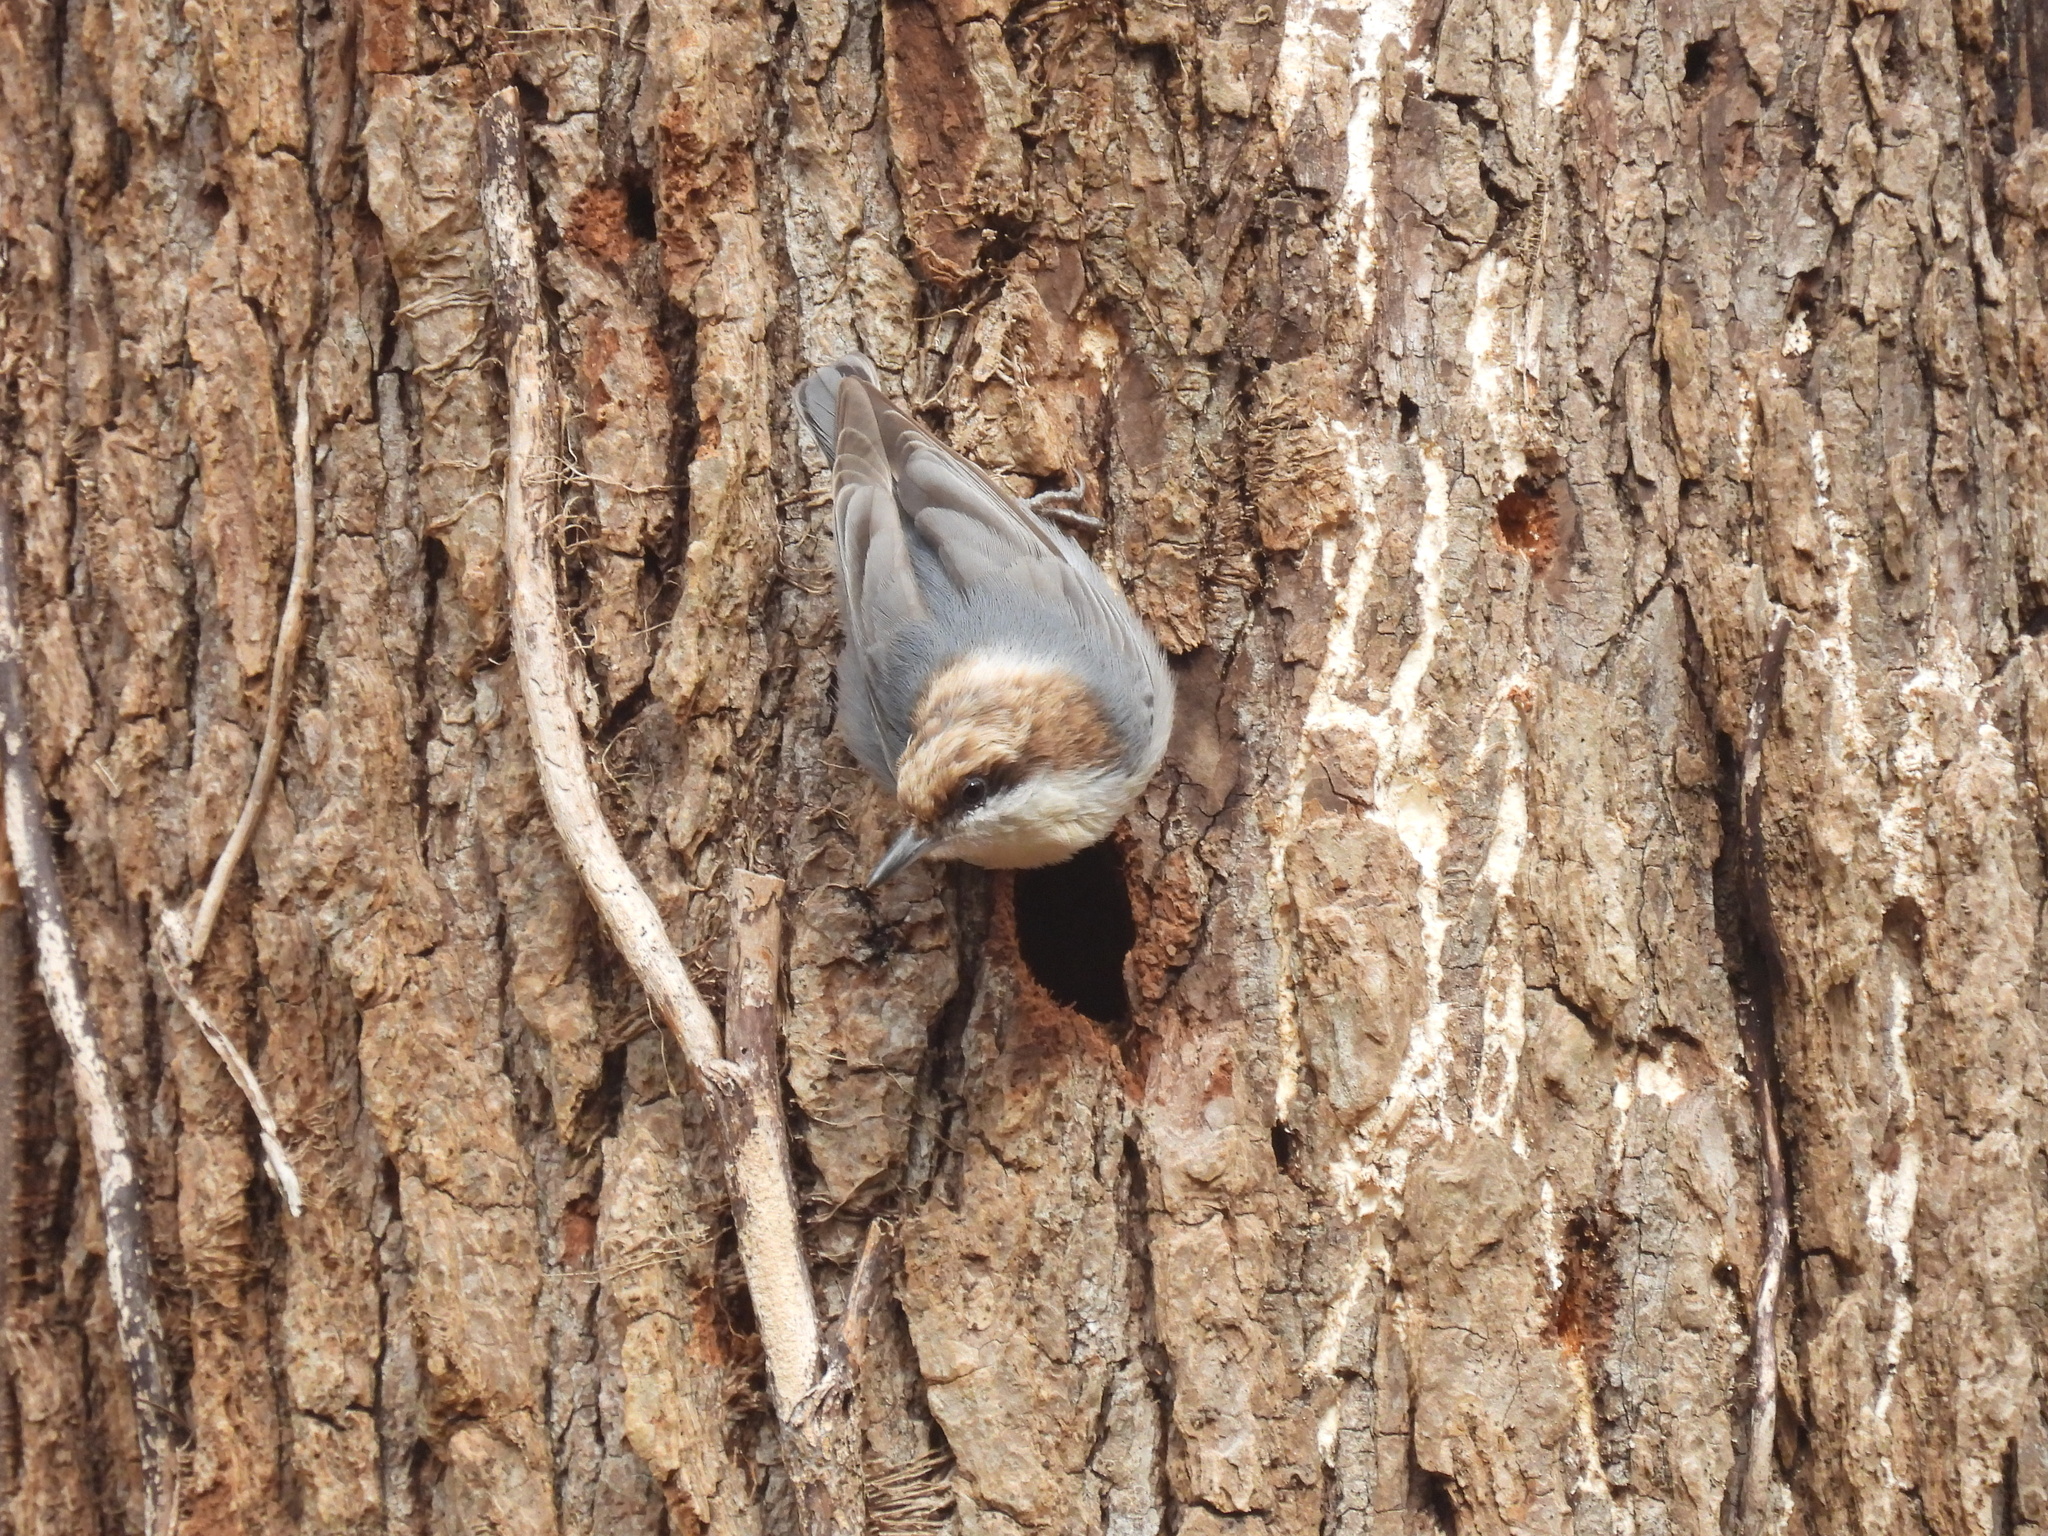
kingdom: Animalia
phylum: Chordata
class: Aves
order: Passeriformes
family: Sittidae
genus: Sitta
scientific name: Sitta pusilla
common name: Brown-headed nuthatch
